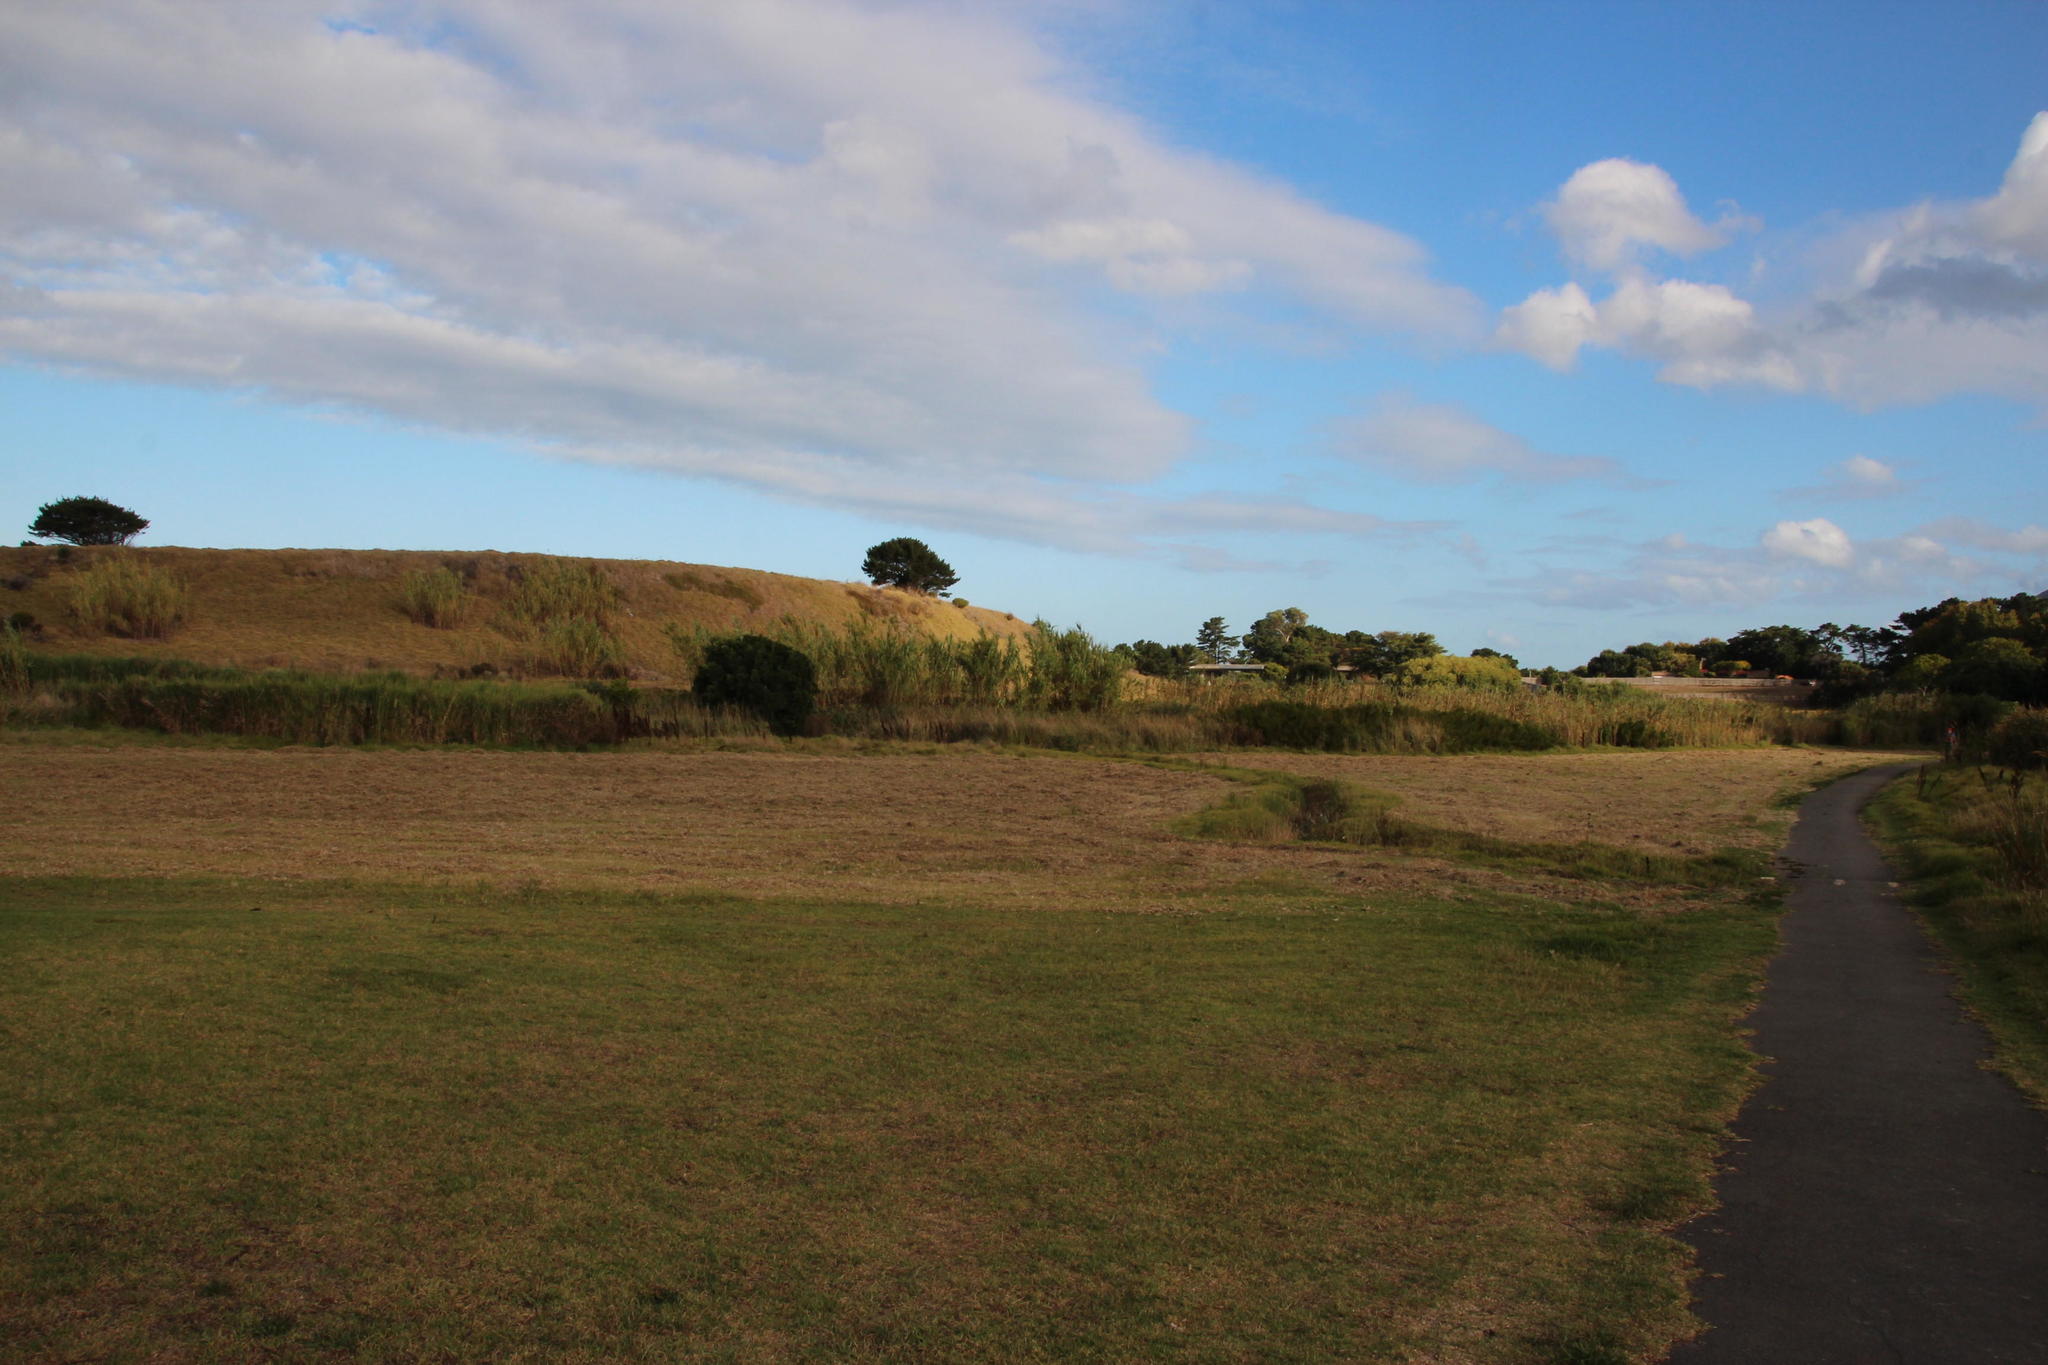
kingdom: Plantae
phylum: Tracheophyta
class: Liliopsida
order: Poales
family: Poaceae
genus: Cenchrus
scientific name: Cenchrus clandestinus
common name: Kikuyugrass
